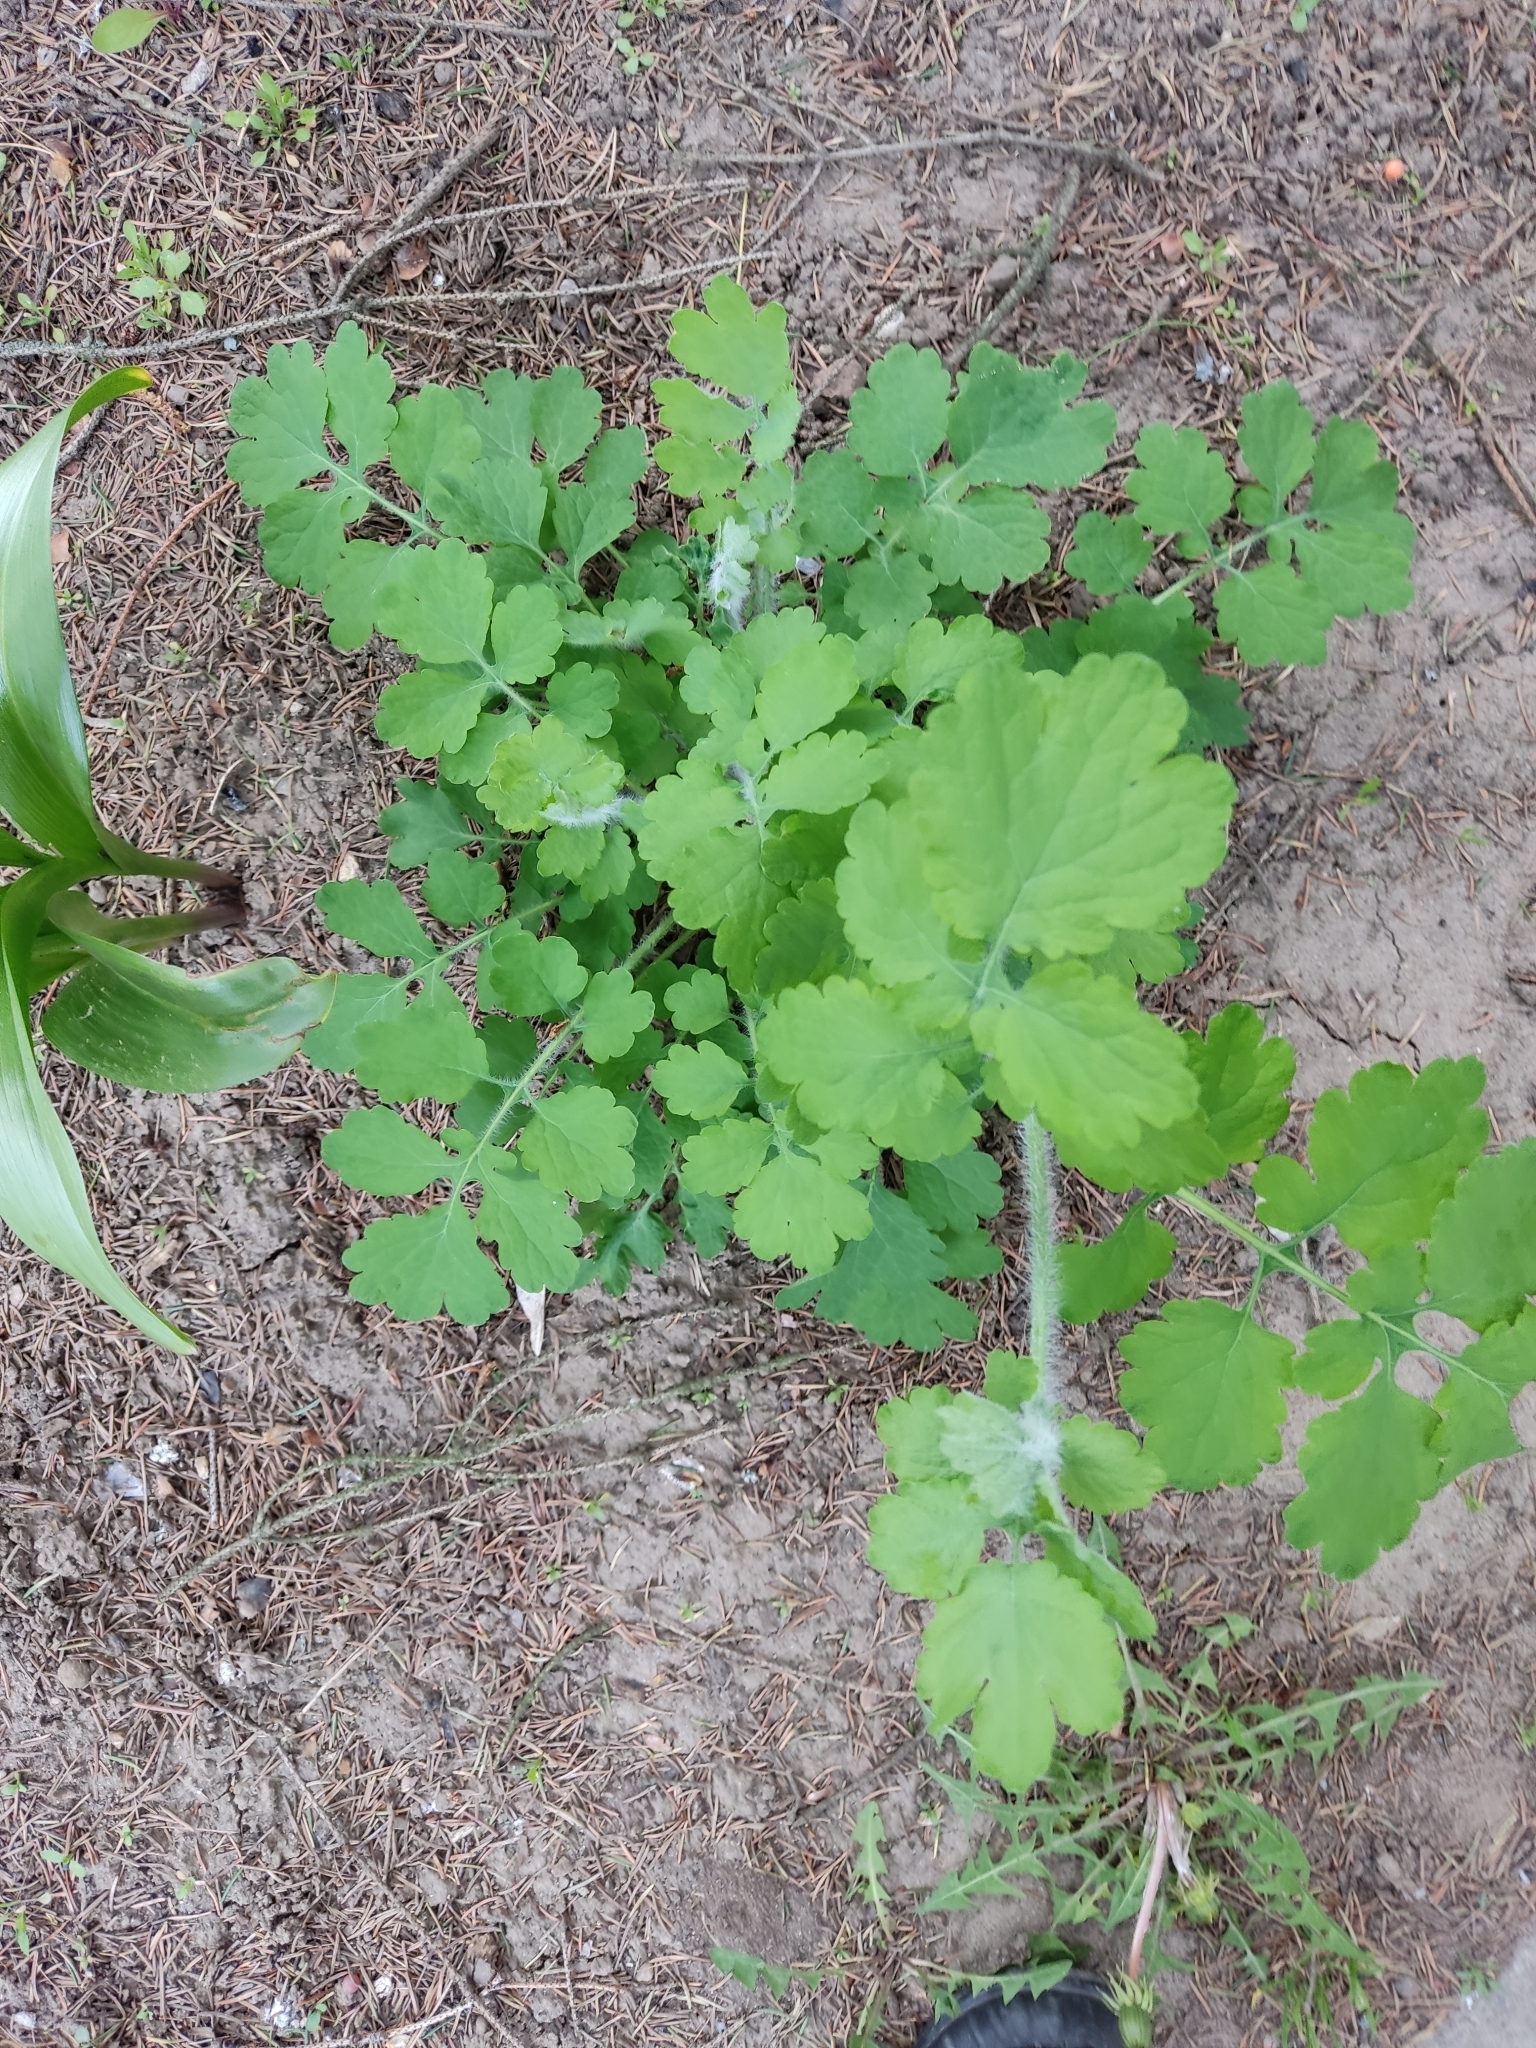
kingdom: Plantae
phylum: Tracheophyta
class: Magnoliopsida
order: Ranunculales
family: Papaveraceae
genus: Chelidonium
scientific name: Chelidonium majus
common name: Greater celandine
